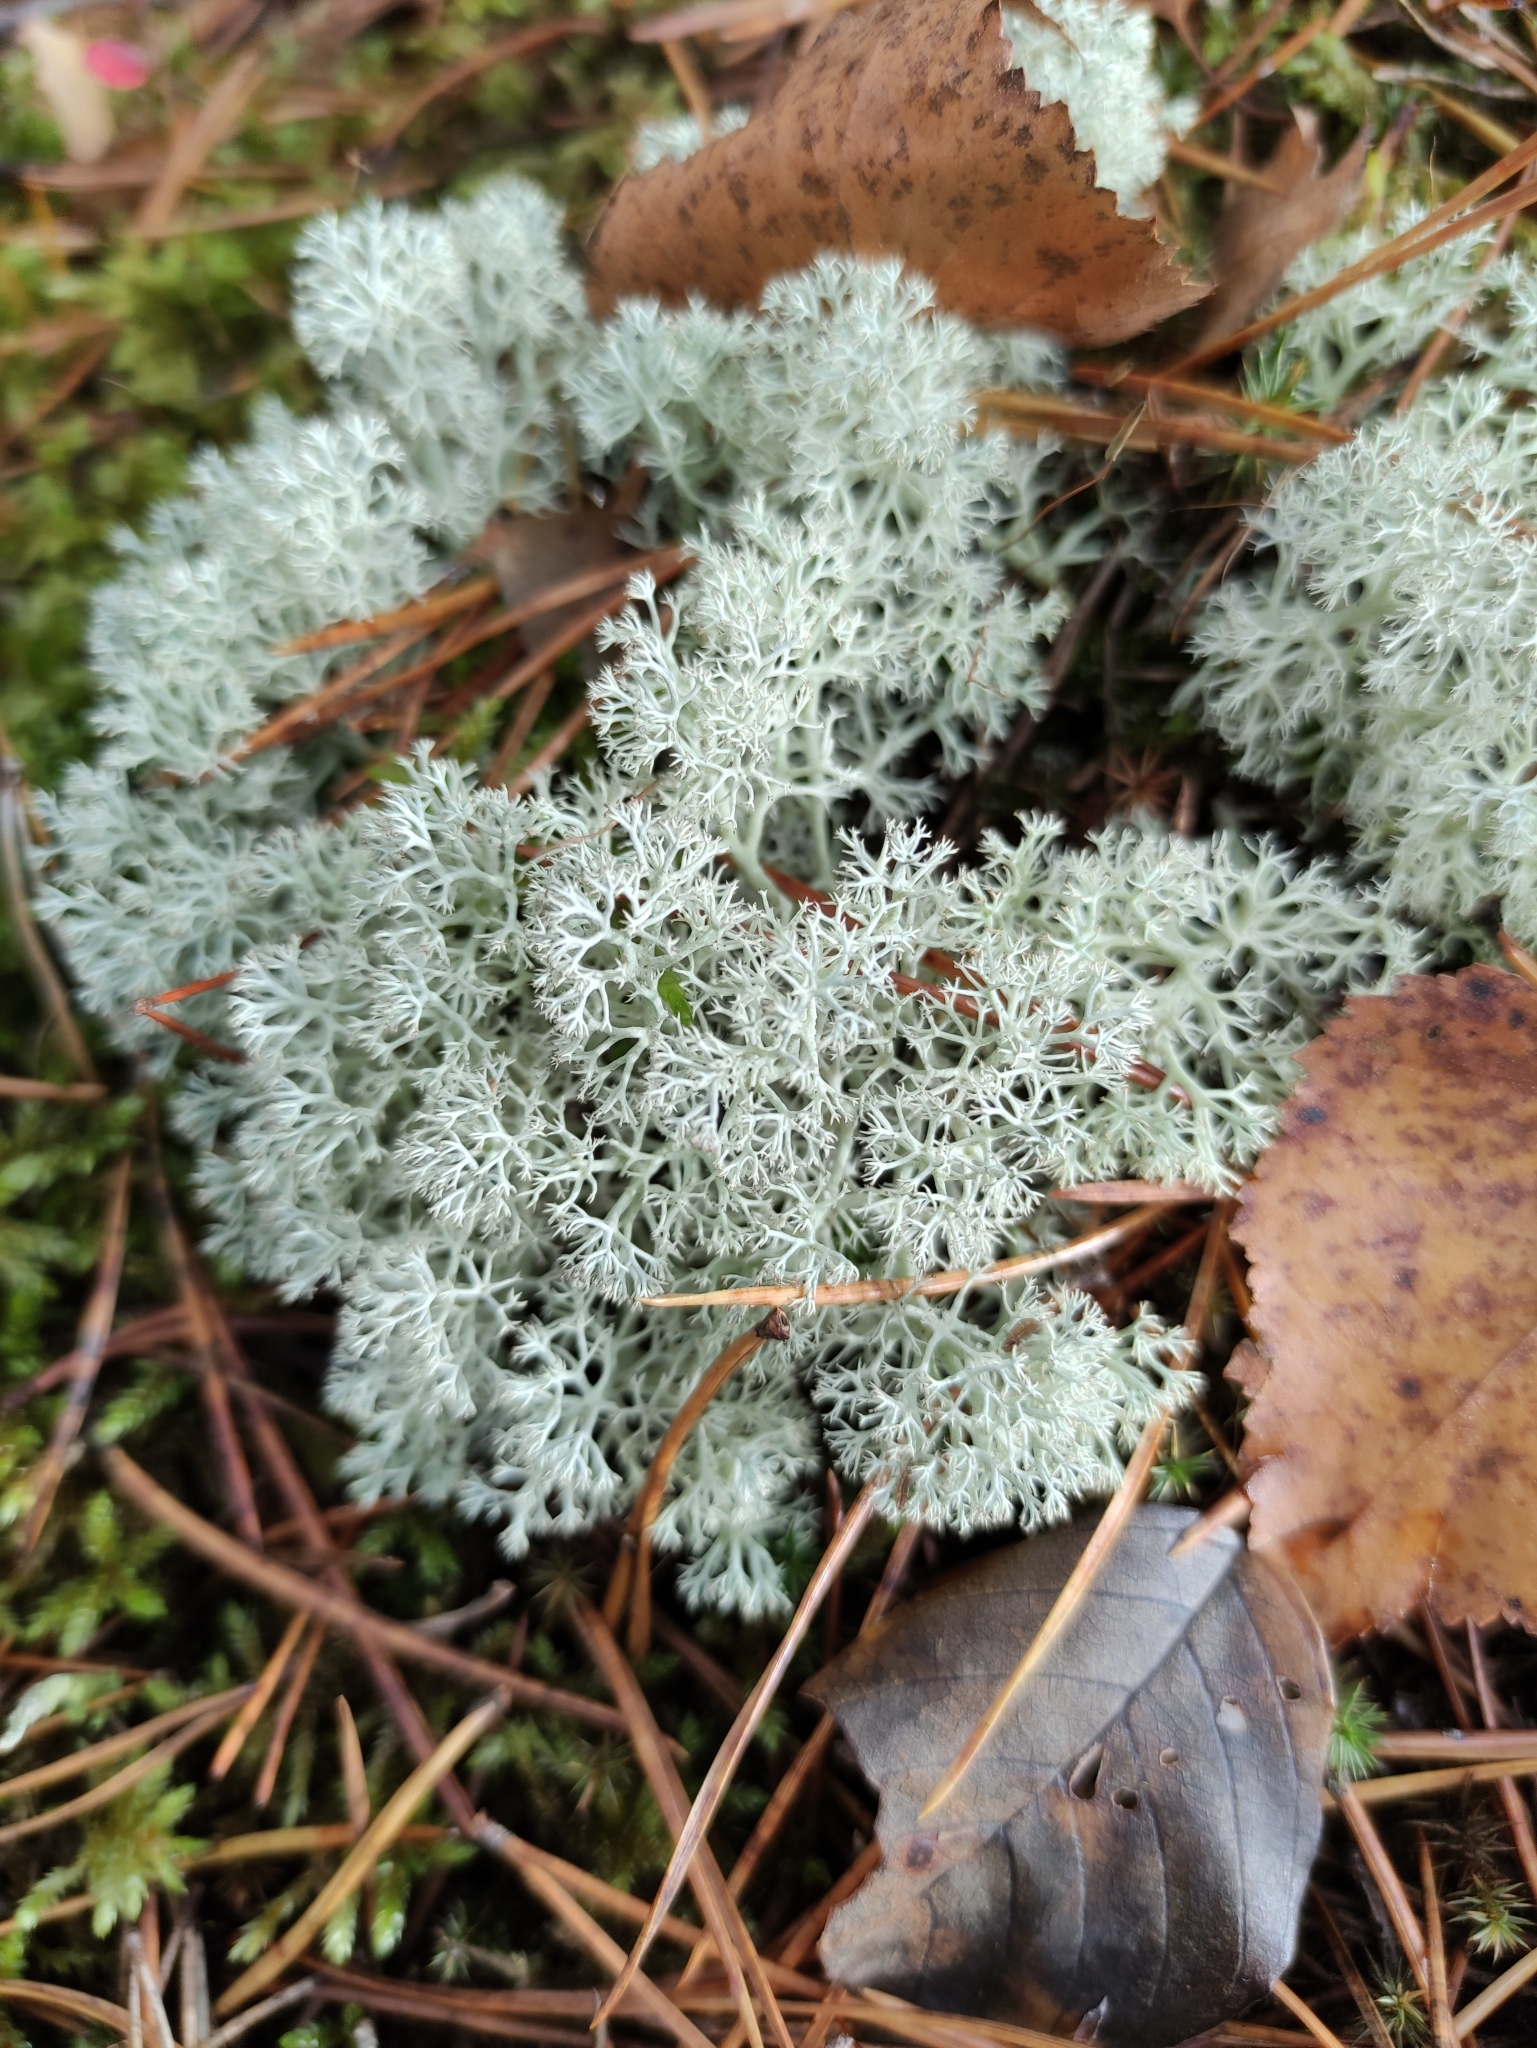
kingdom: Fungi
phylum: Ascomycota
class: Lecanoromycetes
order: Lecanorales
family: Cladoniaceae
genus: Cladonia
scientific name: Cladonia rangiferina
